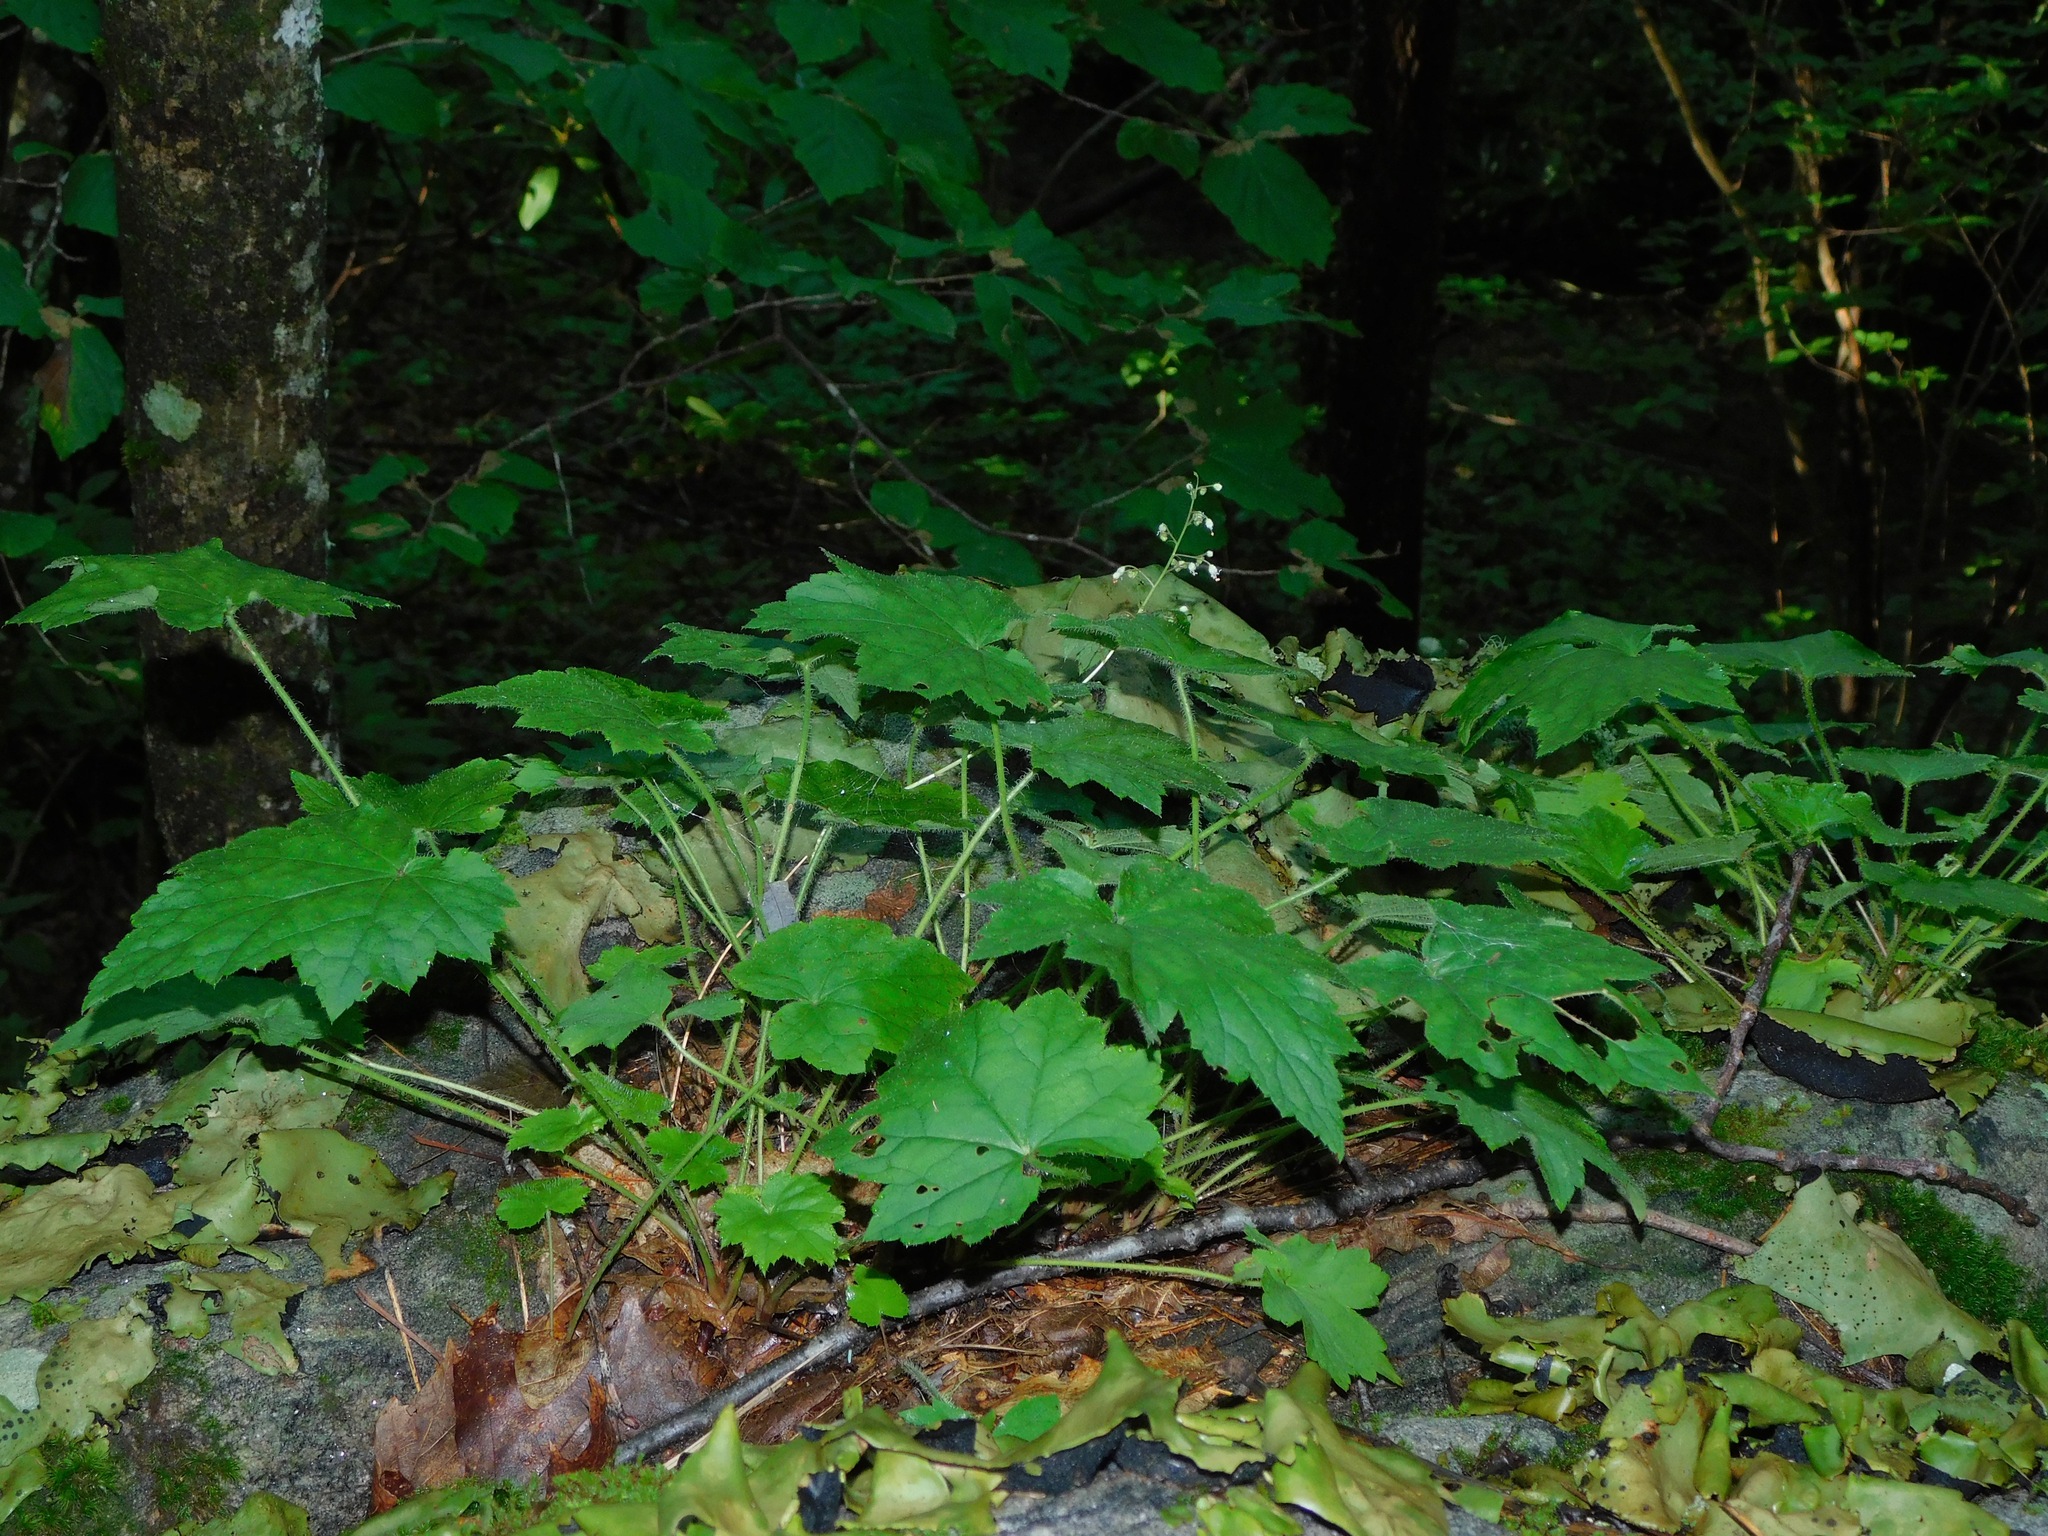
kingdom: Plantae
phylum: Tracheophyta
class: Magnoliopsida
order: Saxifragales
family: Saxifragaceae
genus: Heuchera
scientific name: Heuchera villosa
